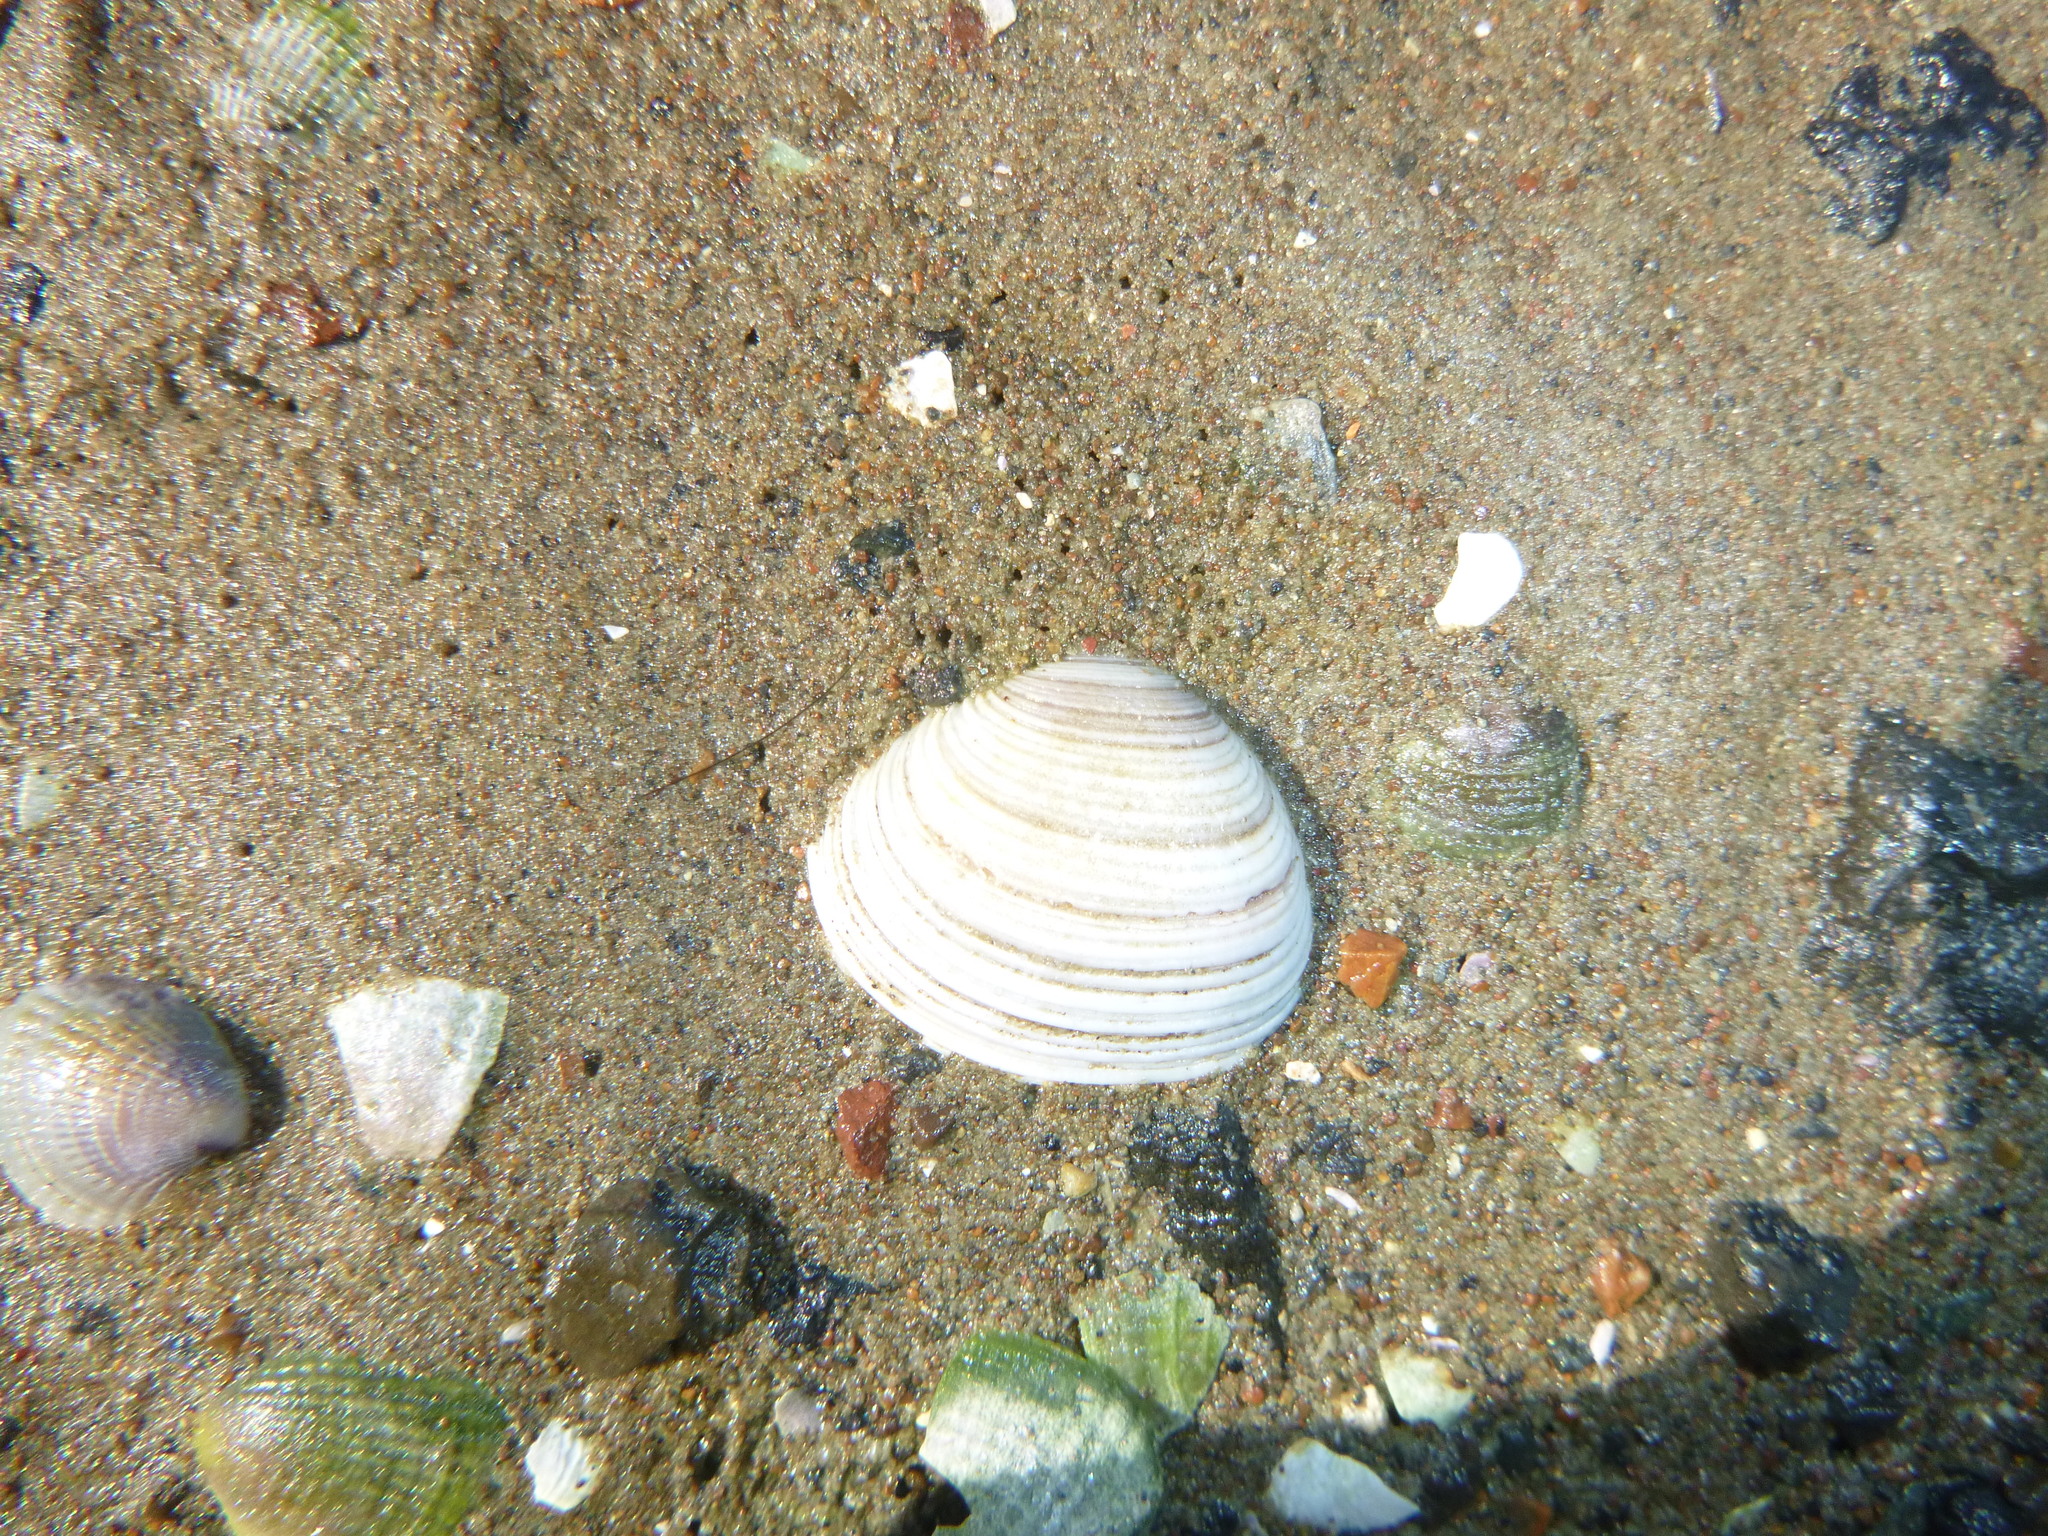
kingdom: Animalia
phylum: Mollusca
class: Bivalvia
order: Venerida
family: Veneridae
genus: Dosina
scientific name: Dosina mactracea
